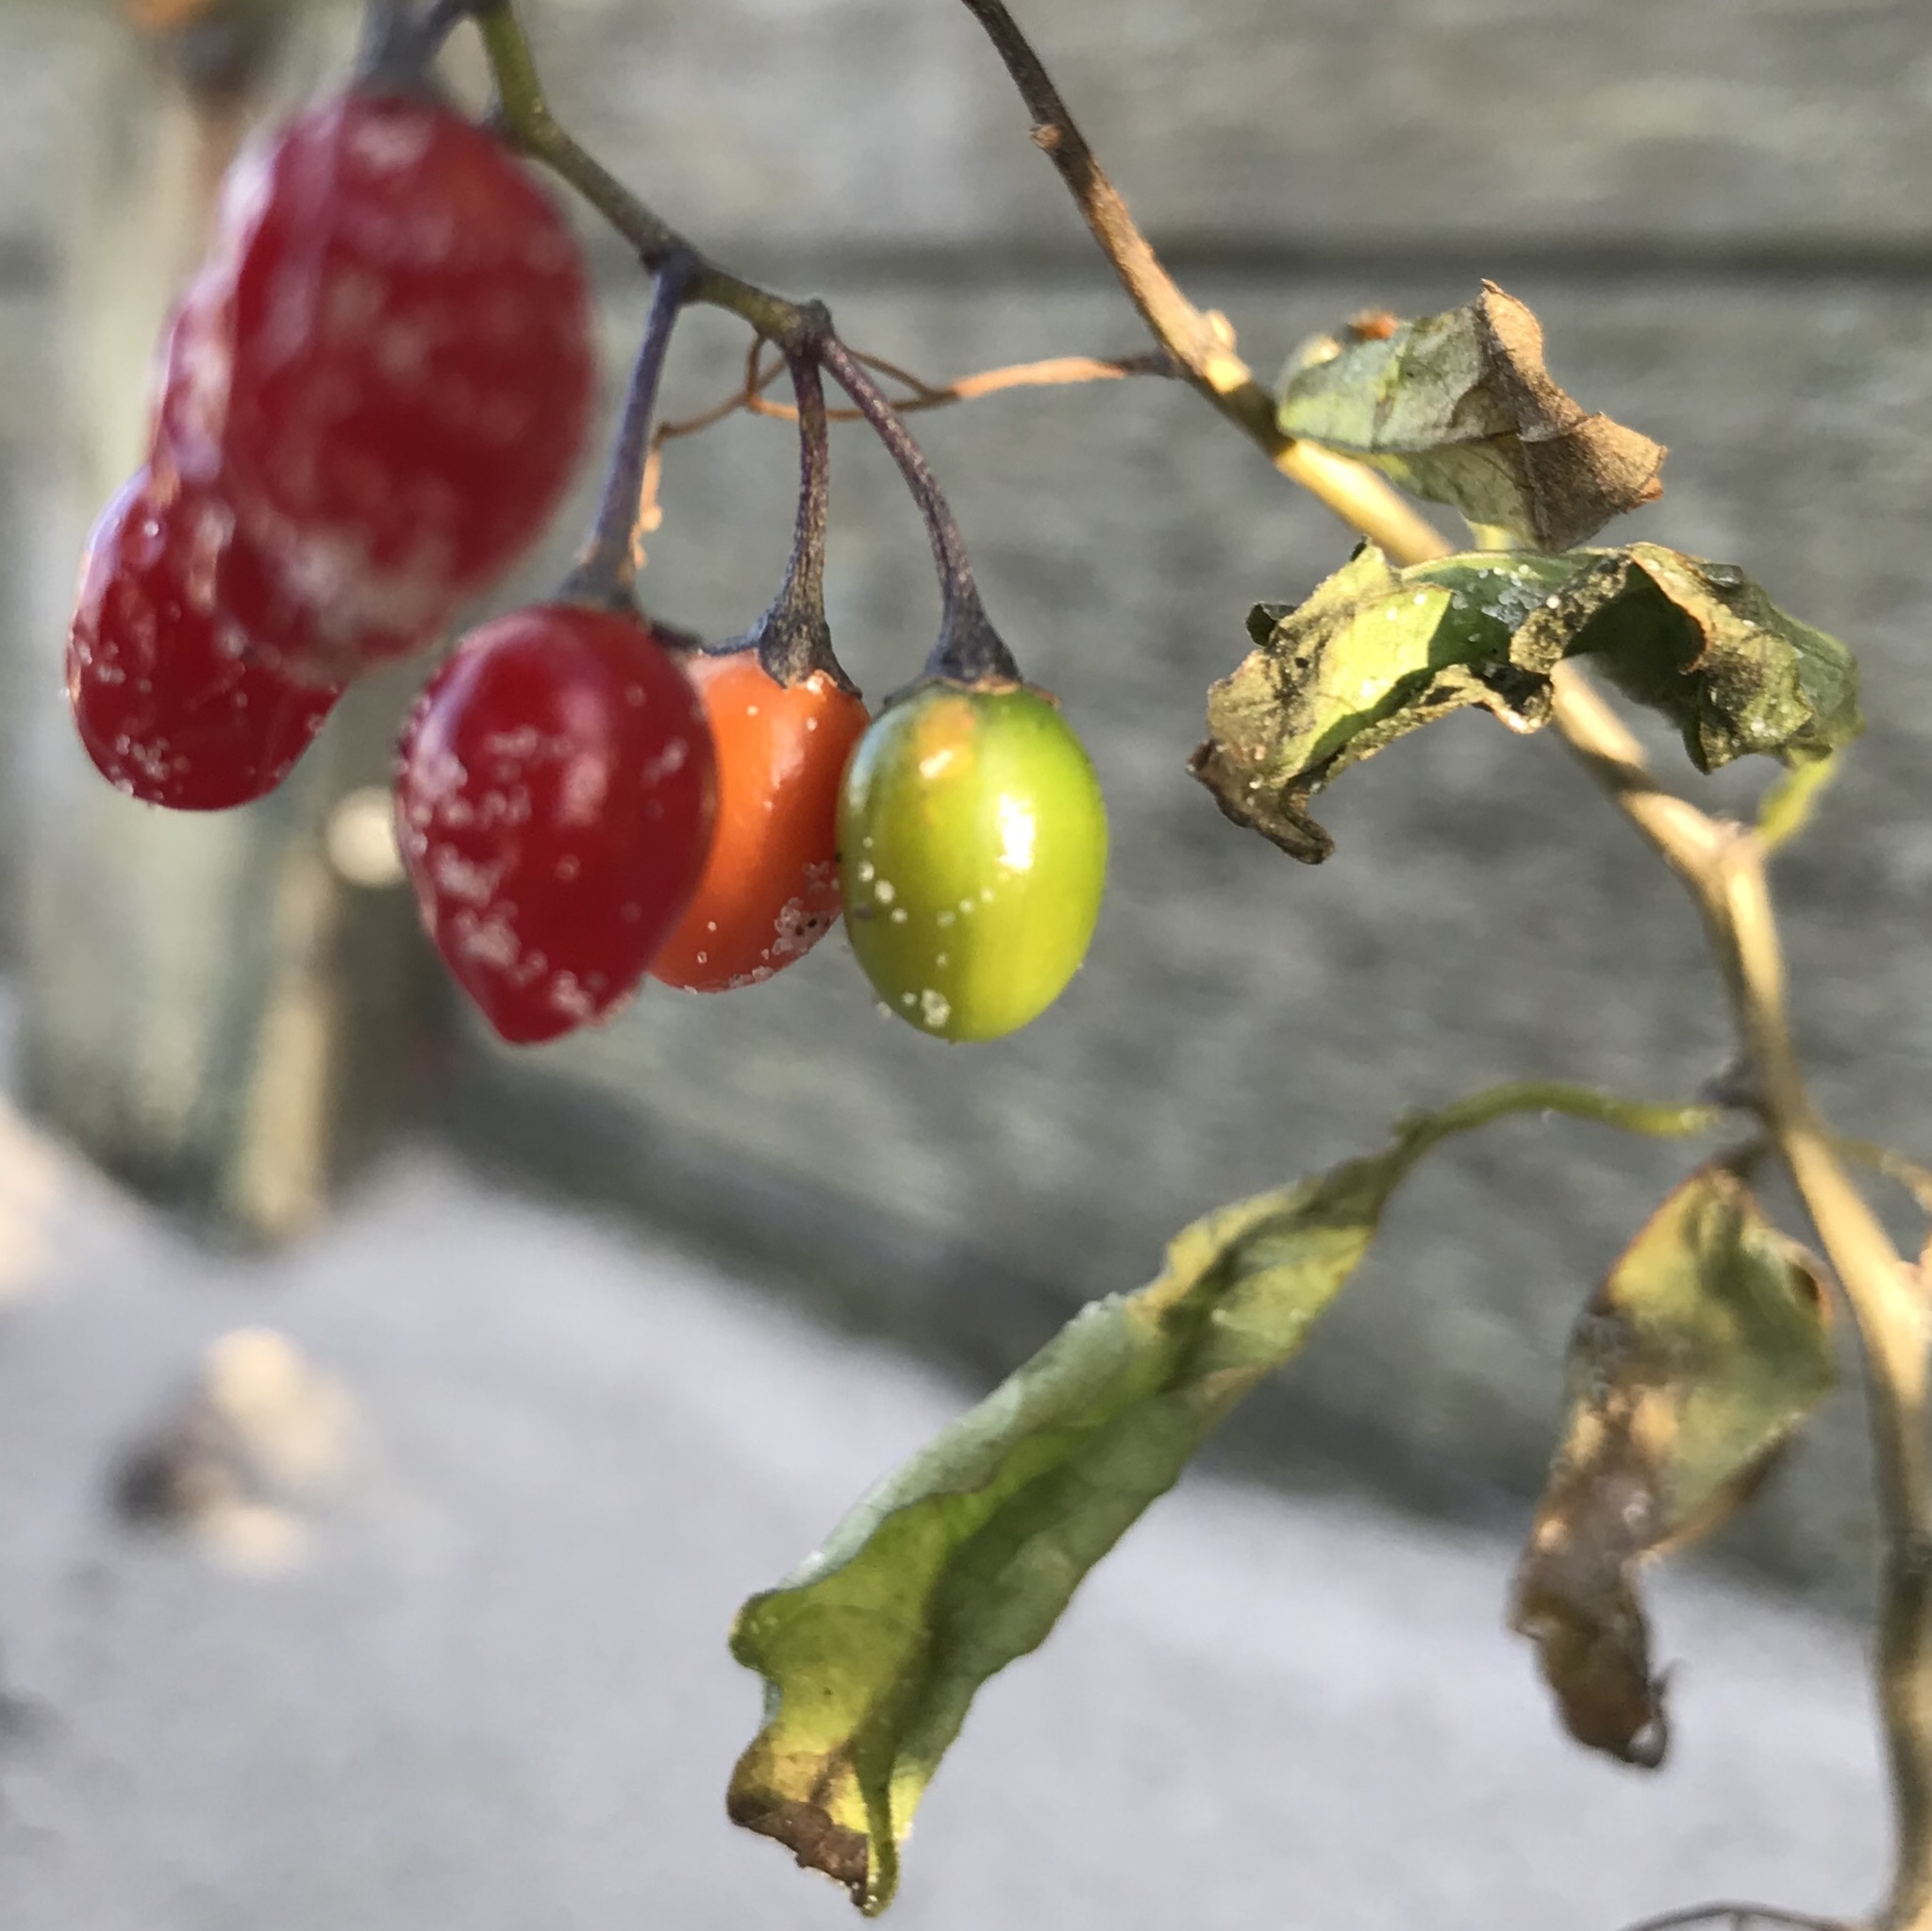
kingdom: Plantae
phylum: Tracheophyta
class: Magnoliopsida
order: Solanales
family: Solanaceae
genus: Solanum
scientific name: Solanum dulcamara
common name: Climbing nightshade
